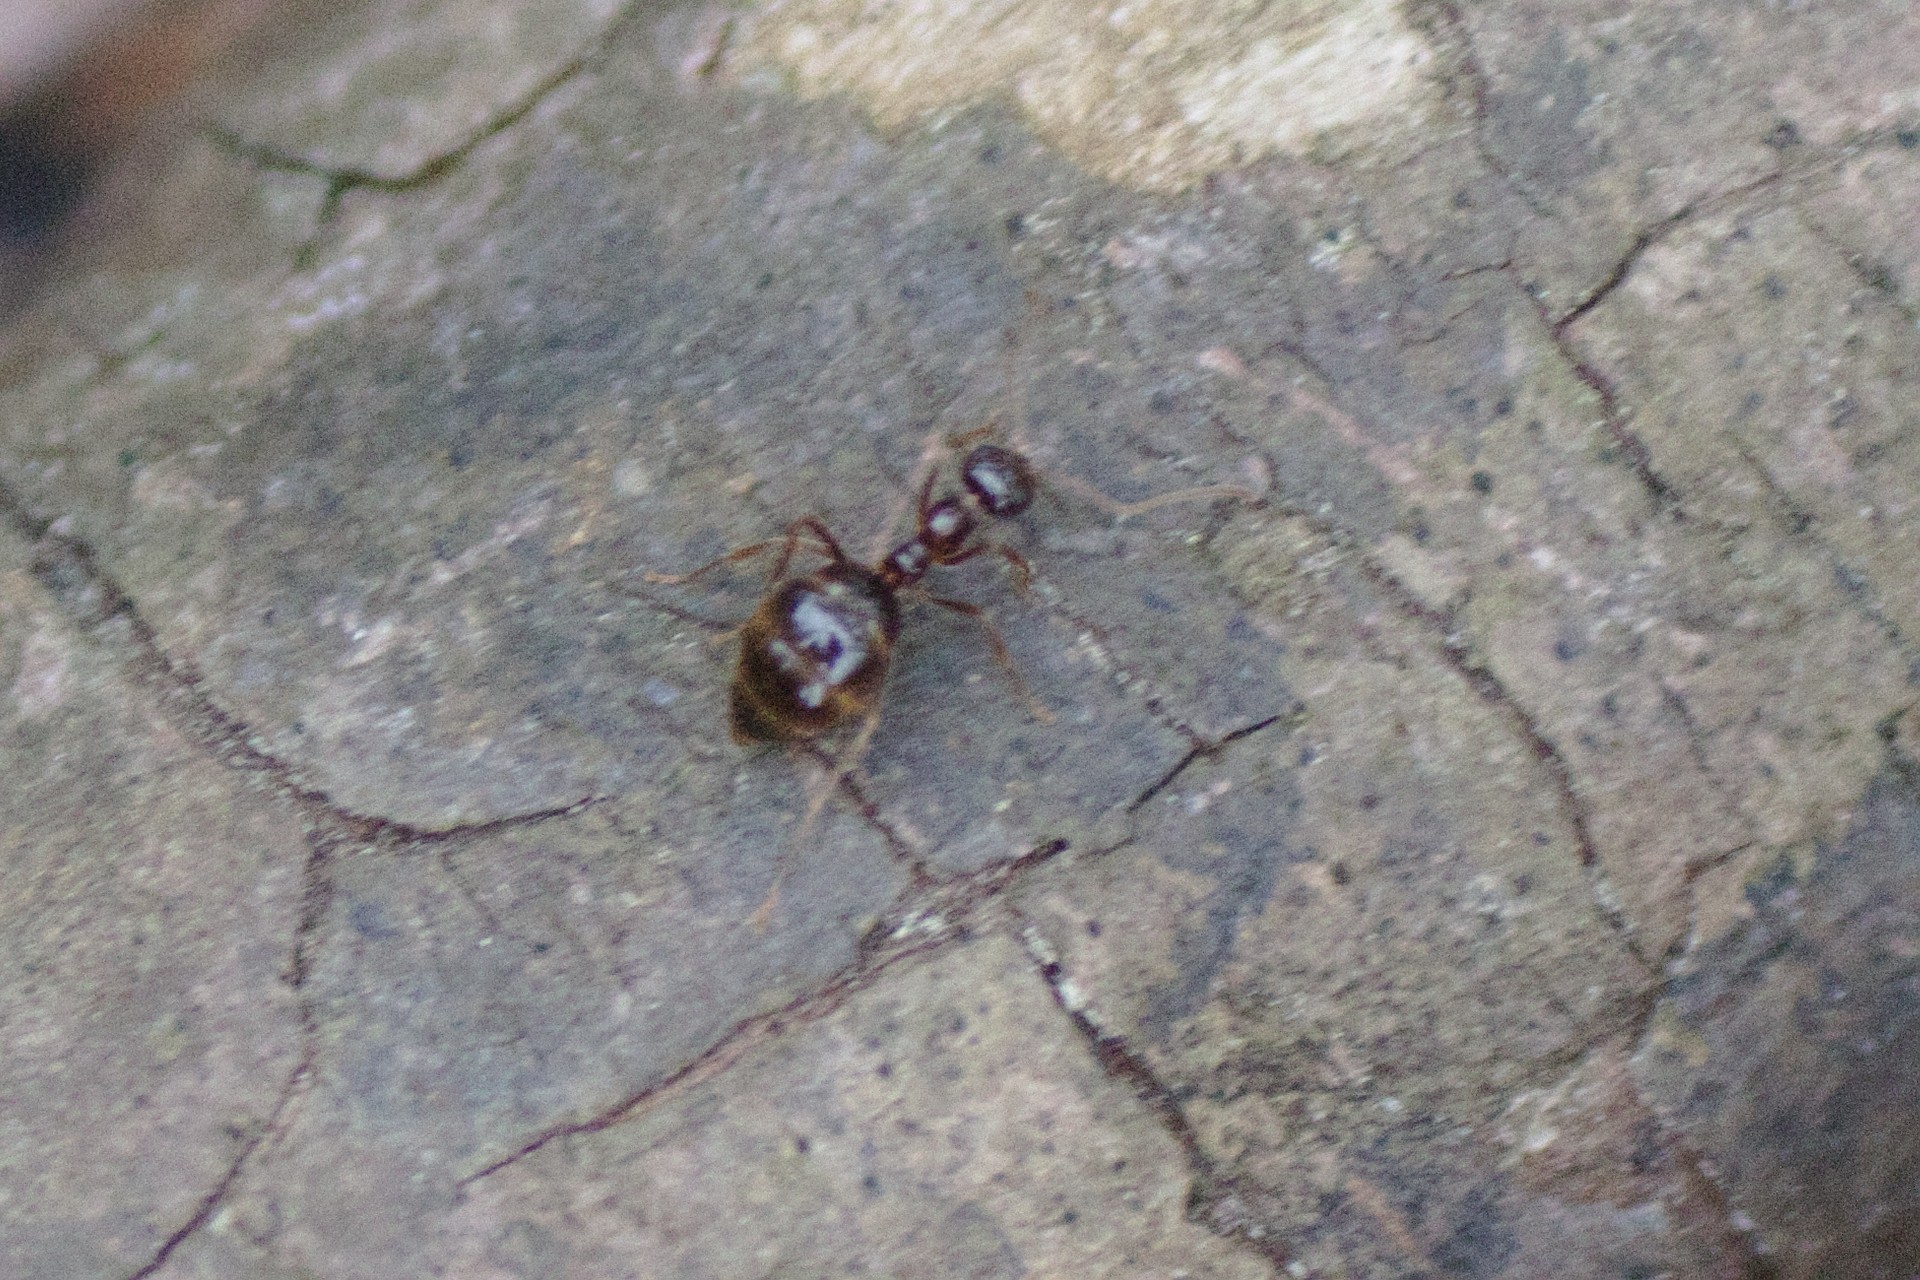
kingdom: Animalia
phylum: Arthropoda
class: Insecta
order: Hymenoptera
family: Formicidae
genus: Prenolepis
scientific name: Prenolepis imparis
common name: Small honey ant
